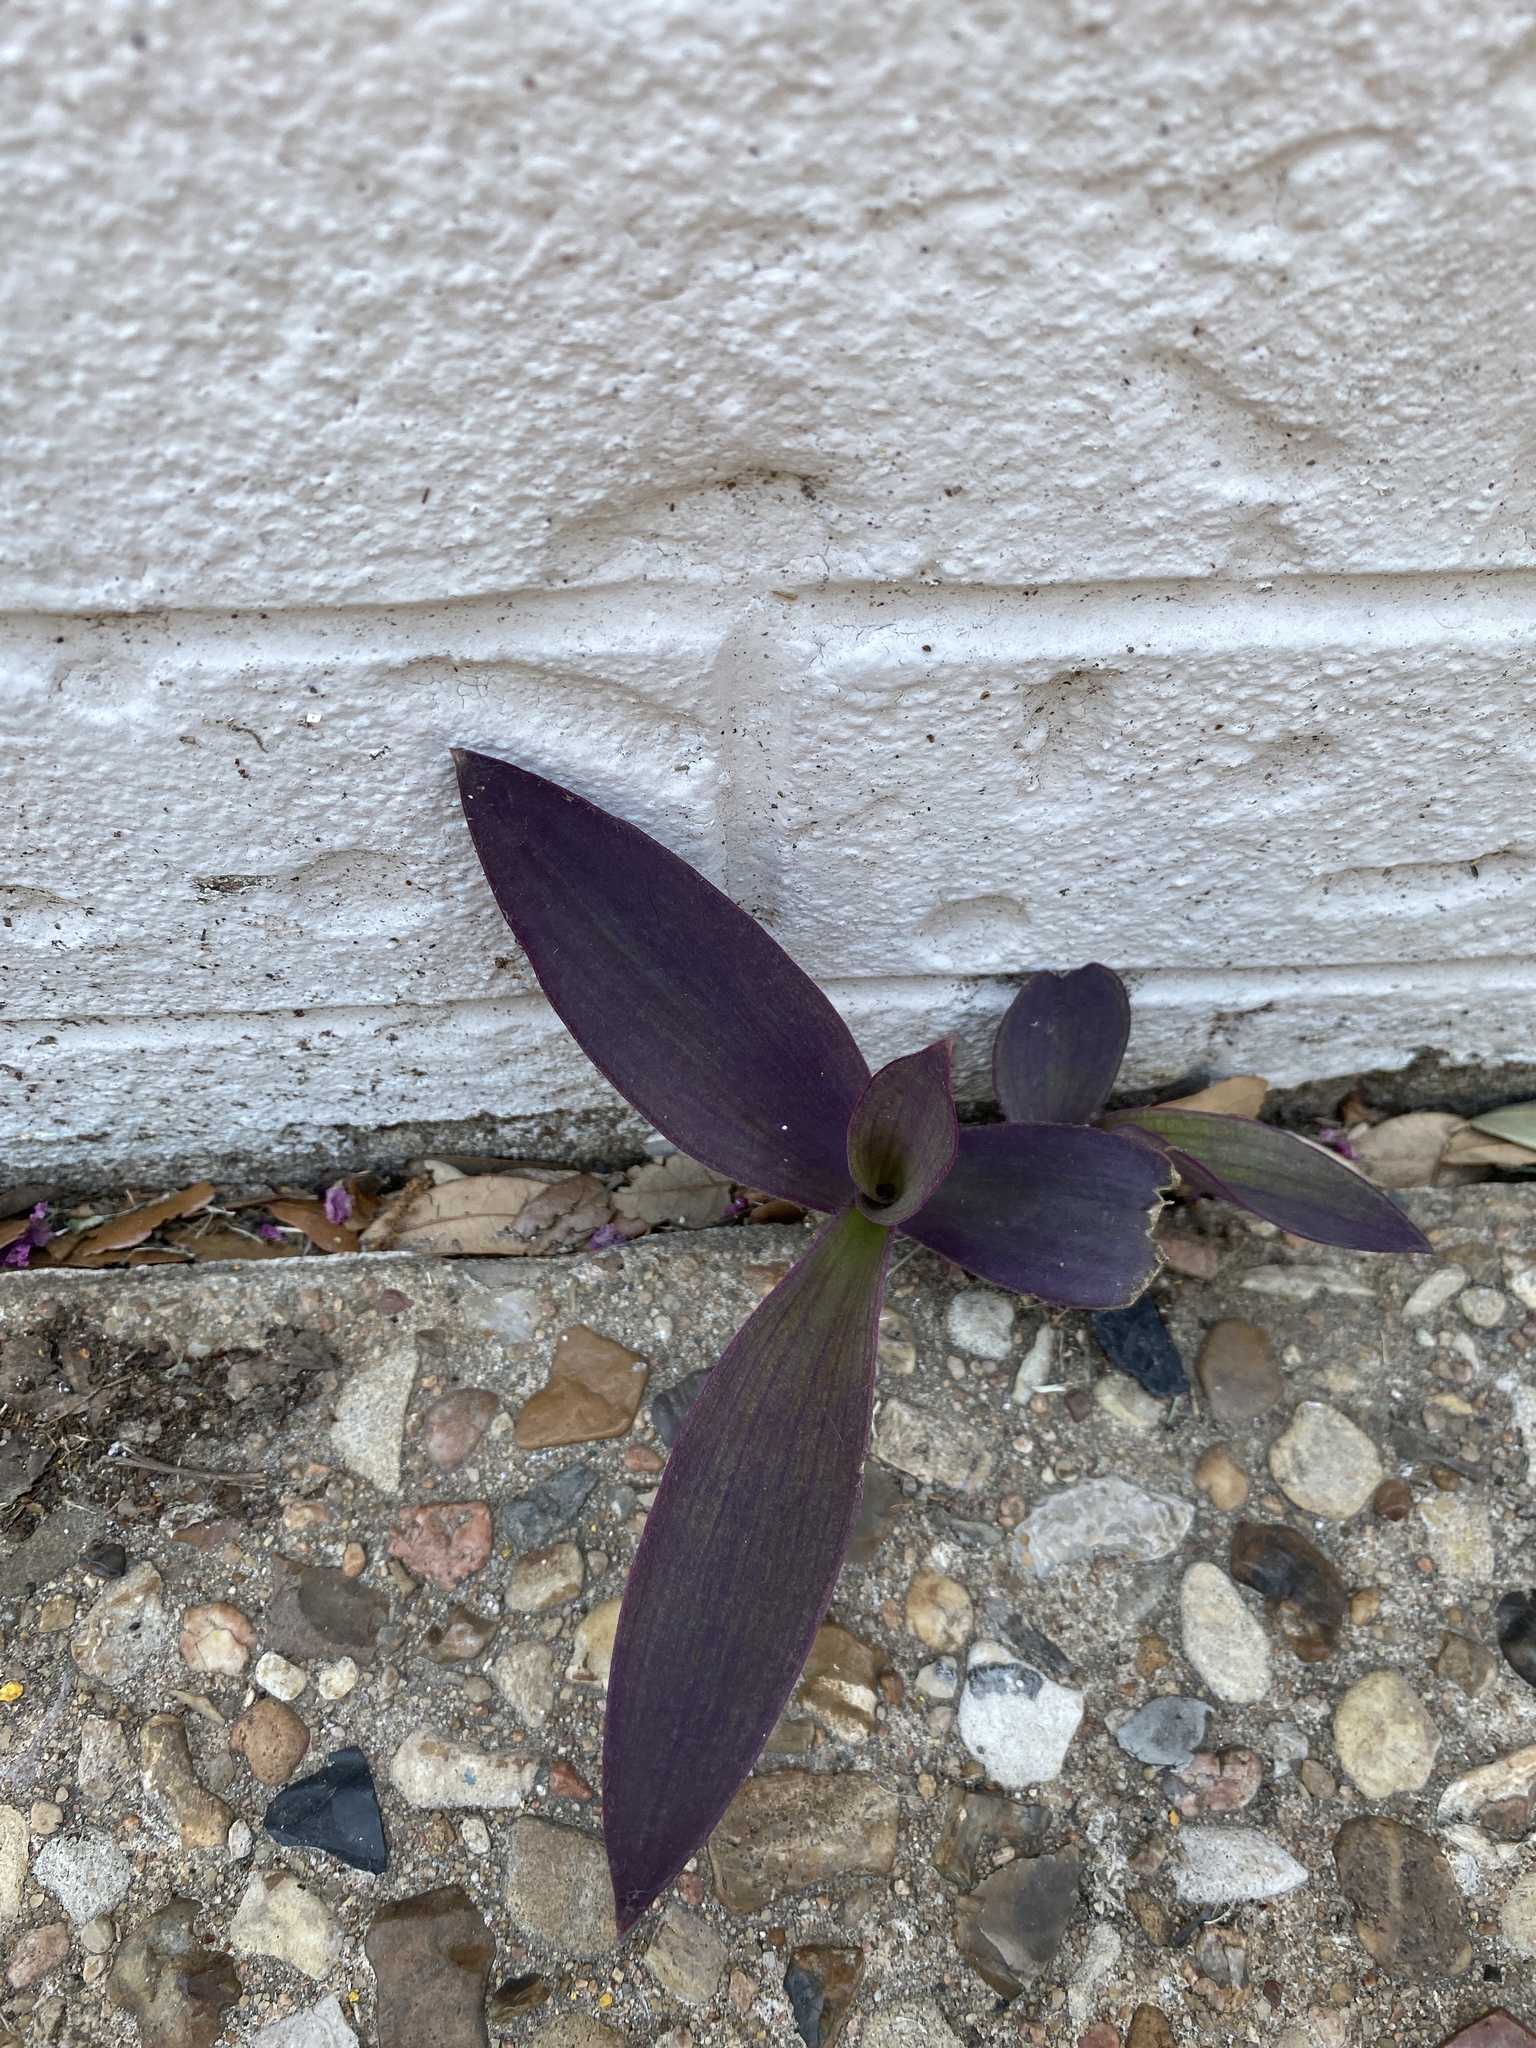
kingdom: Plantae
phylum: Tracheophyta
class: Liliopsida
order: Commelinales
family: Commelinaceae
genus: Tradescantia
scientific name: Tradescantia pallida
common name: Purpleheart
